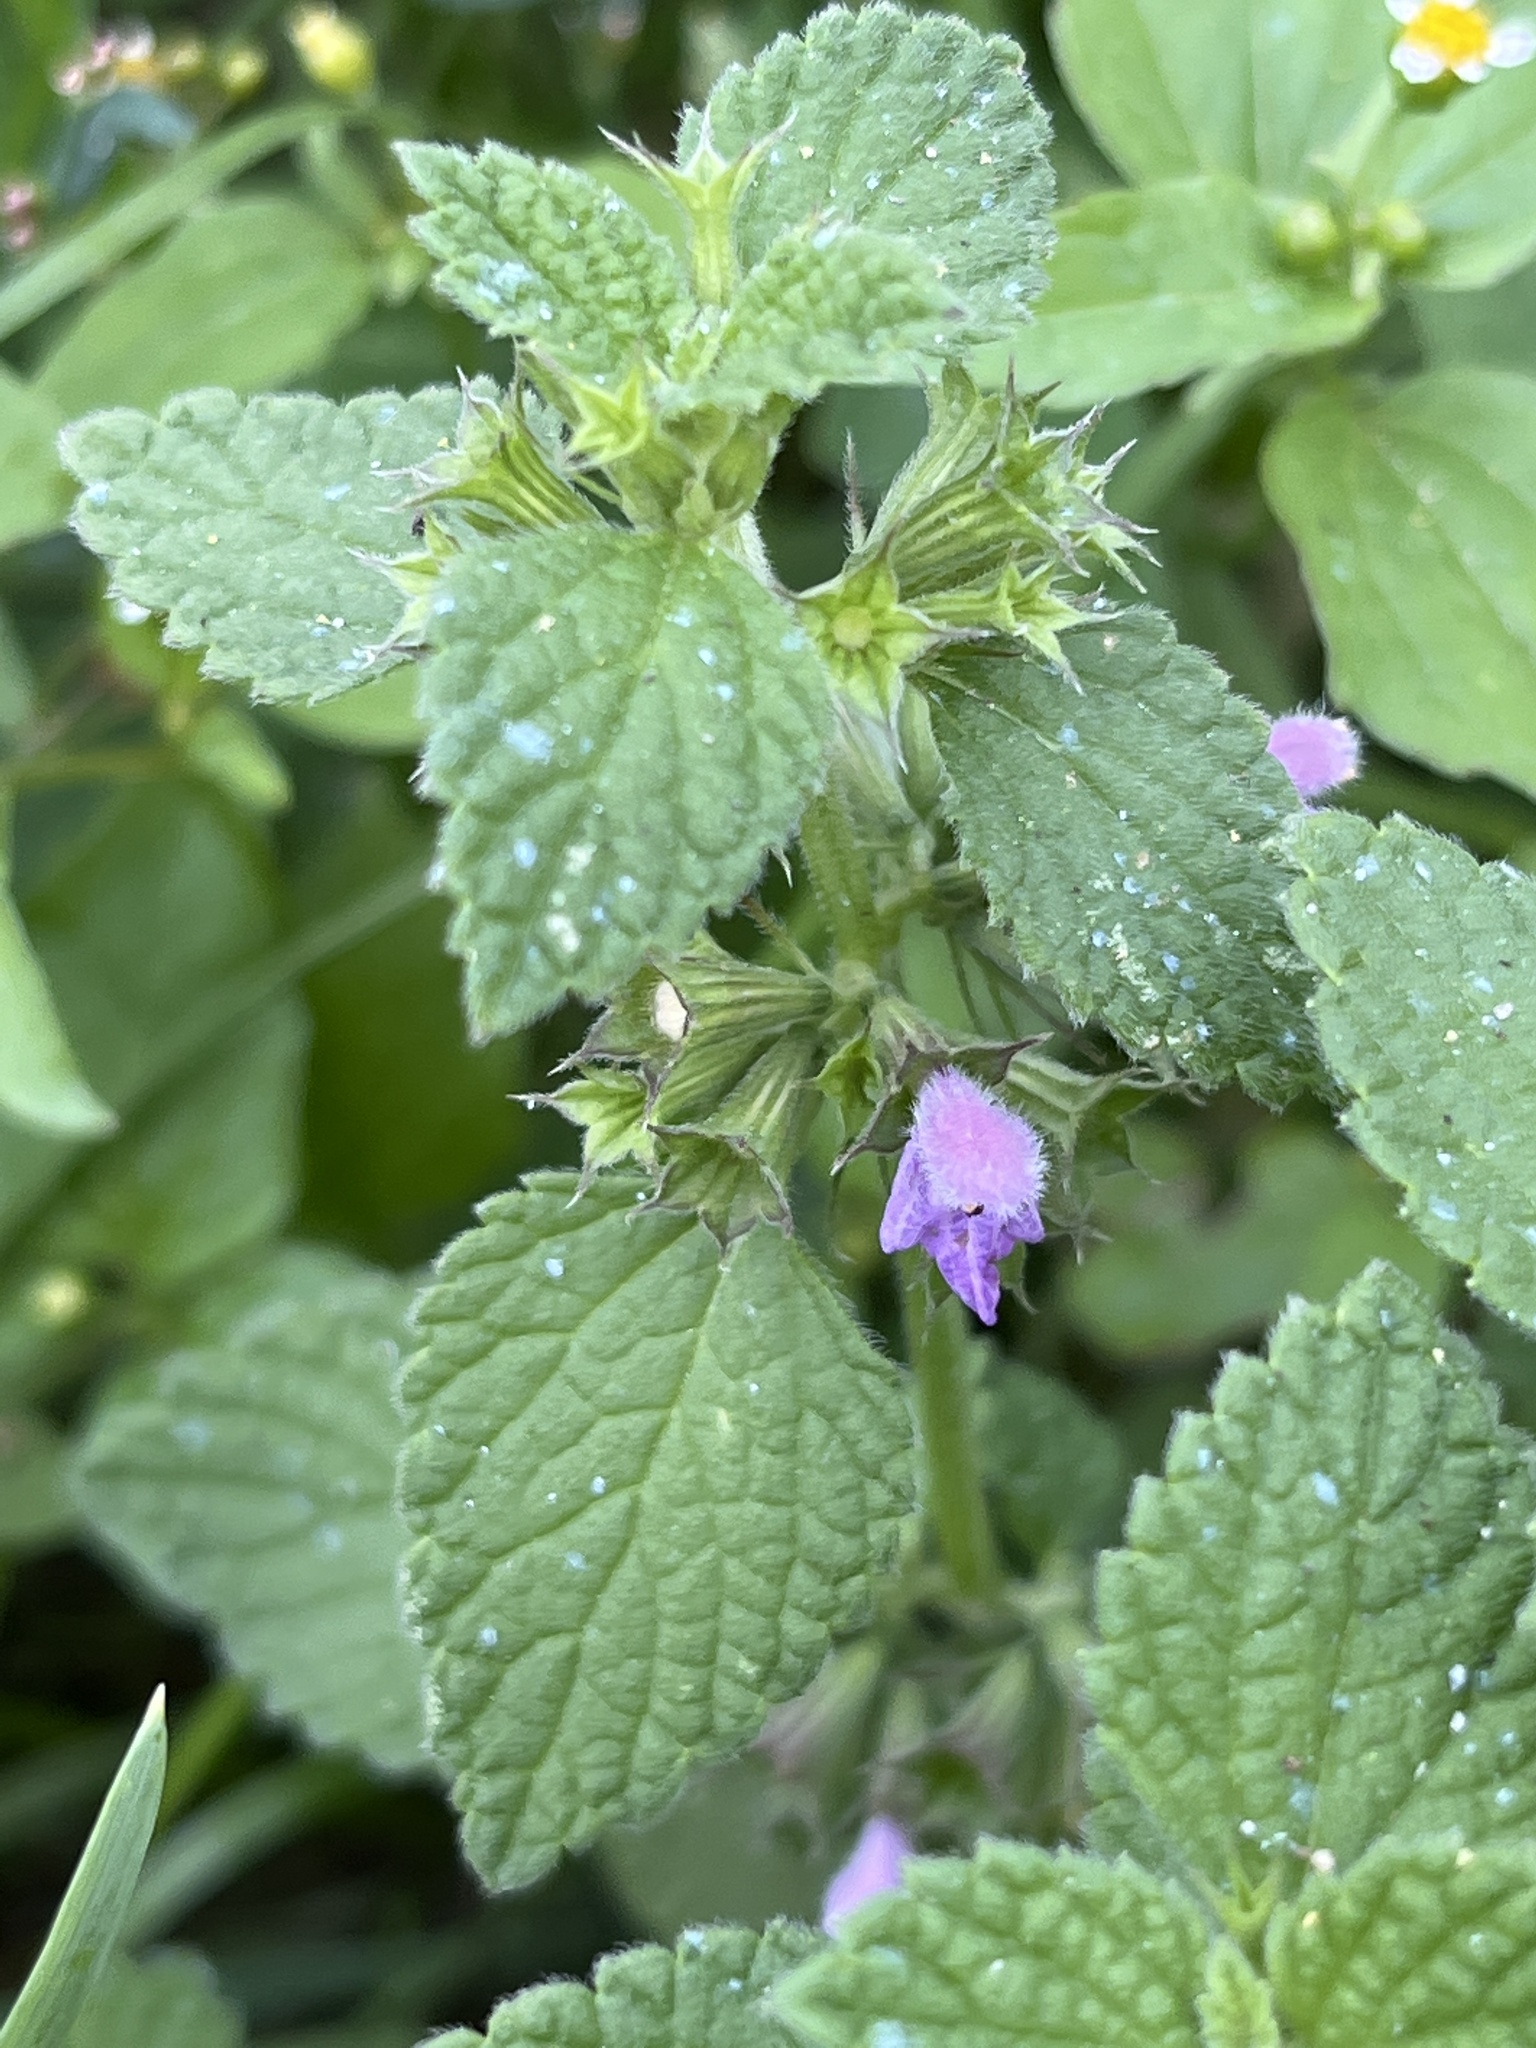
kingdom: Plantae
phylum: Tracheophyta
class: Magnoliopsida
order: Lamiales
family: Lamiaceae
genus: Ballota
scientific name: Ballota nigra
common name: Black horehound
